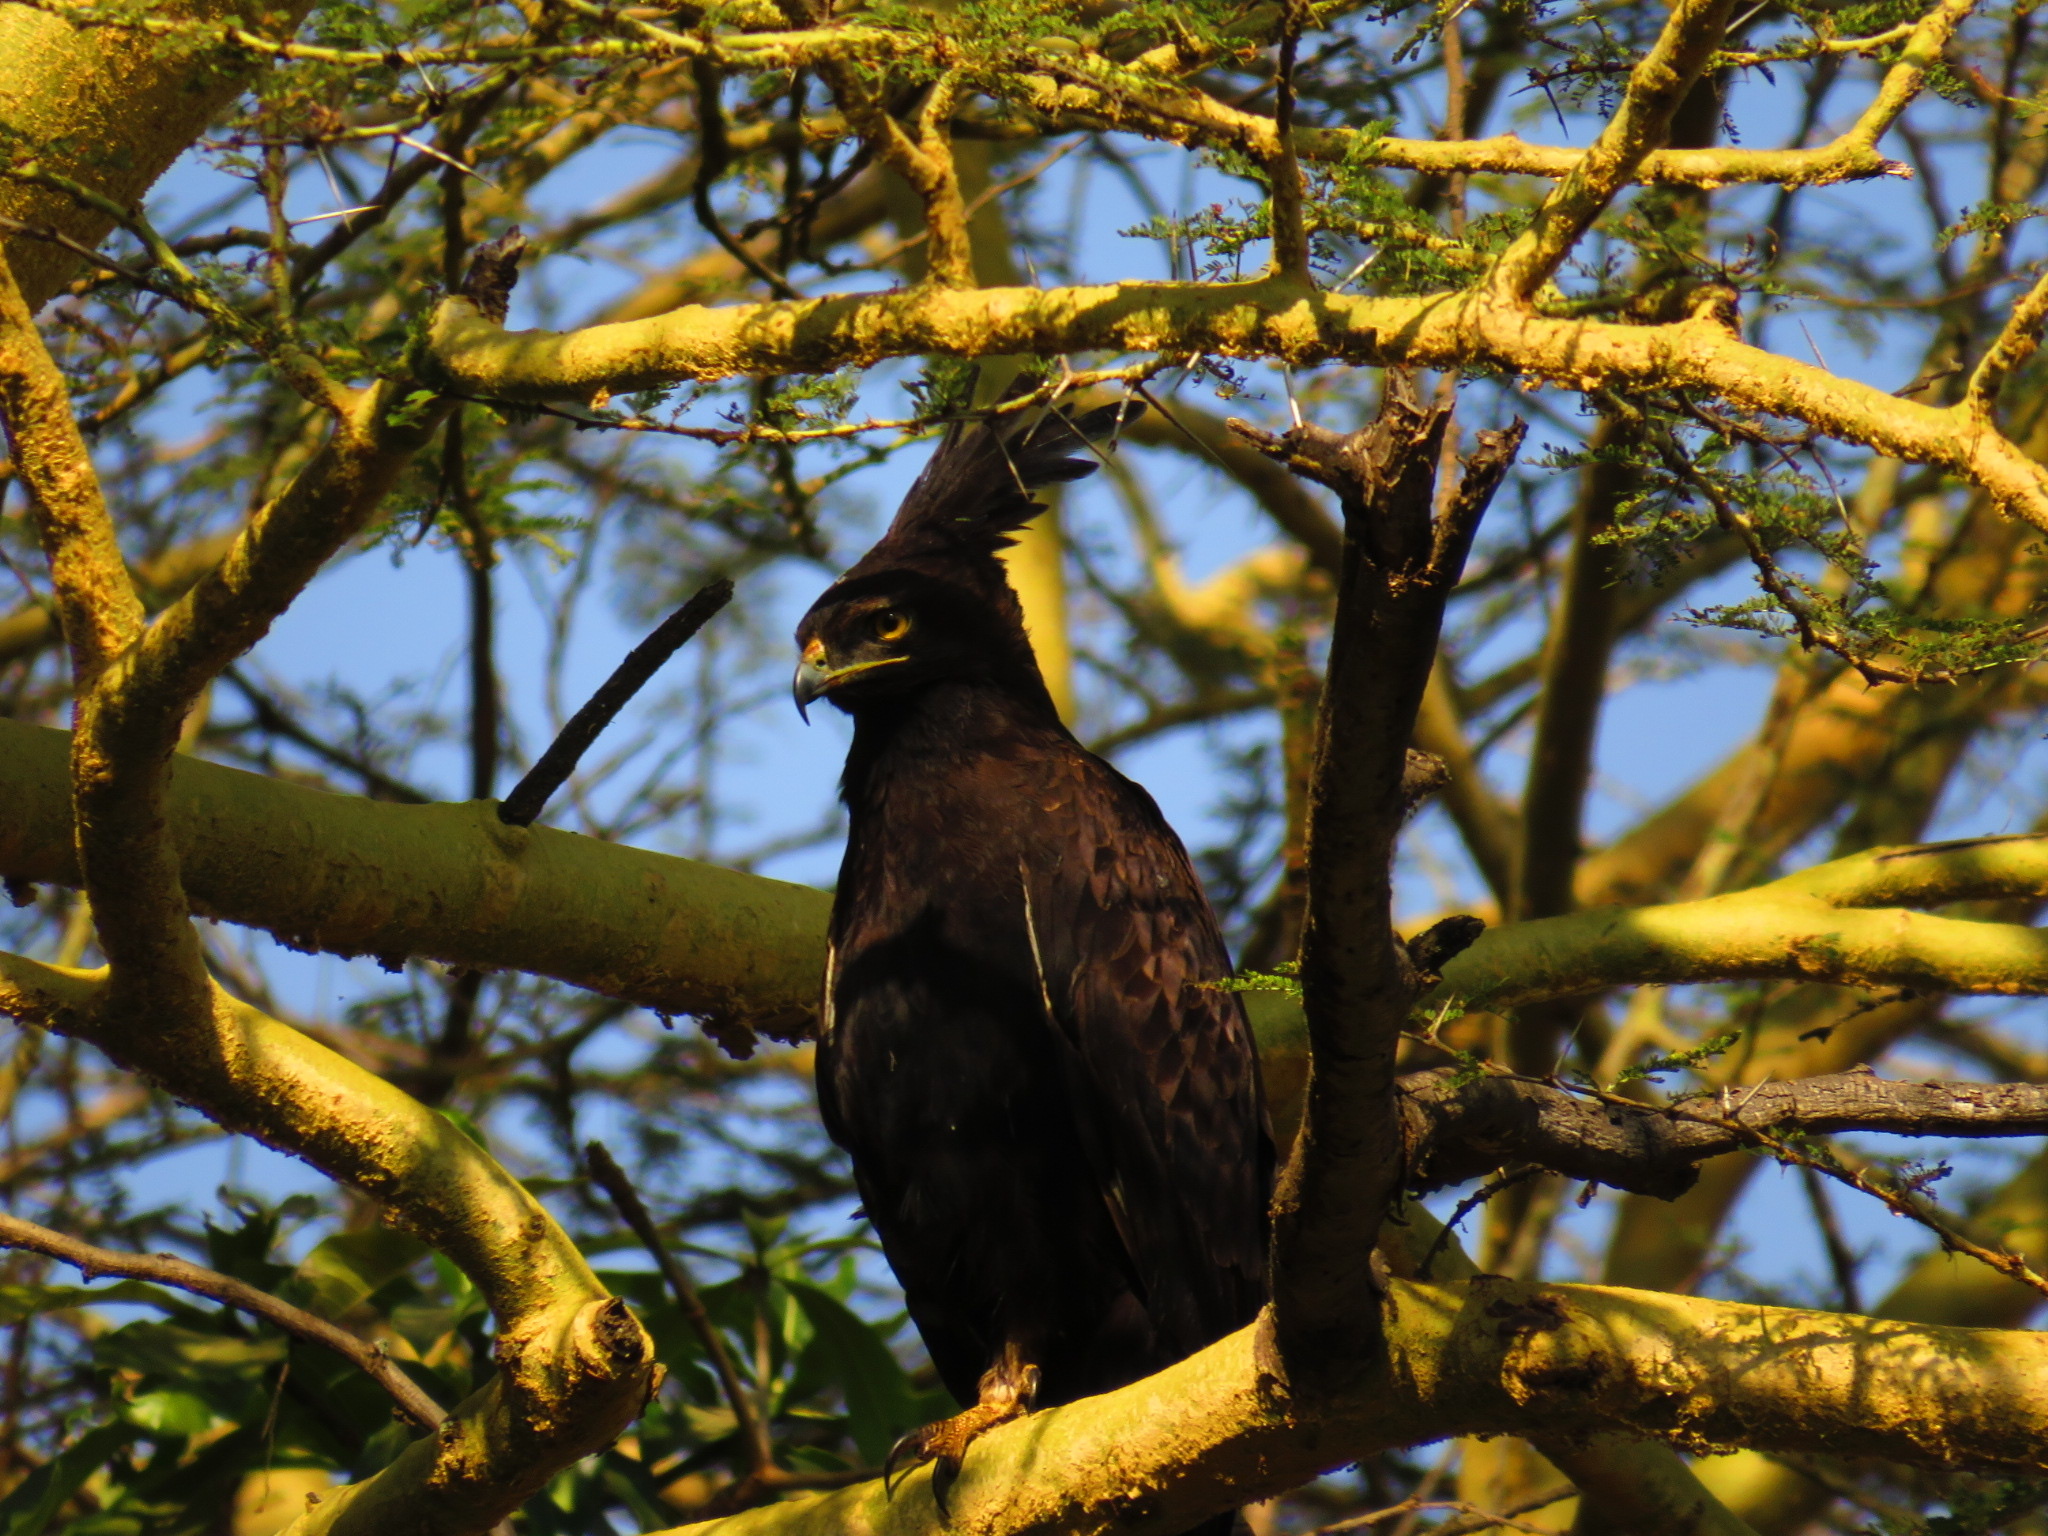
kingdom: Animalia
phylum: Chordata
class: Aves
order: Accipitriformes
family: Accipitridae
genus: Lophaetus
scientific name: Lophaetus occipitalis
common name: Long-crested eagle
